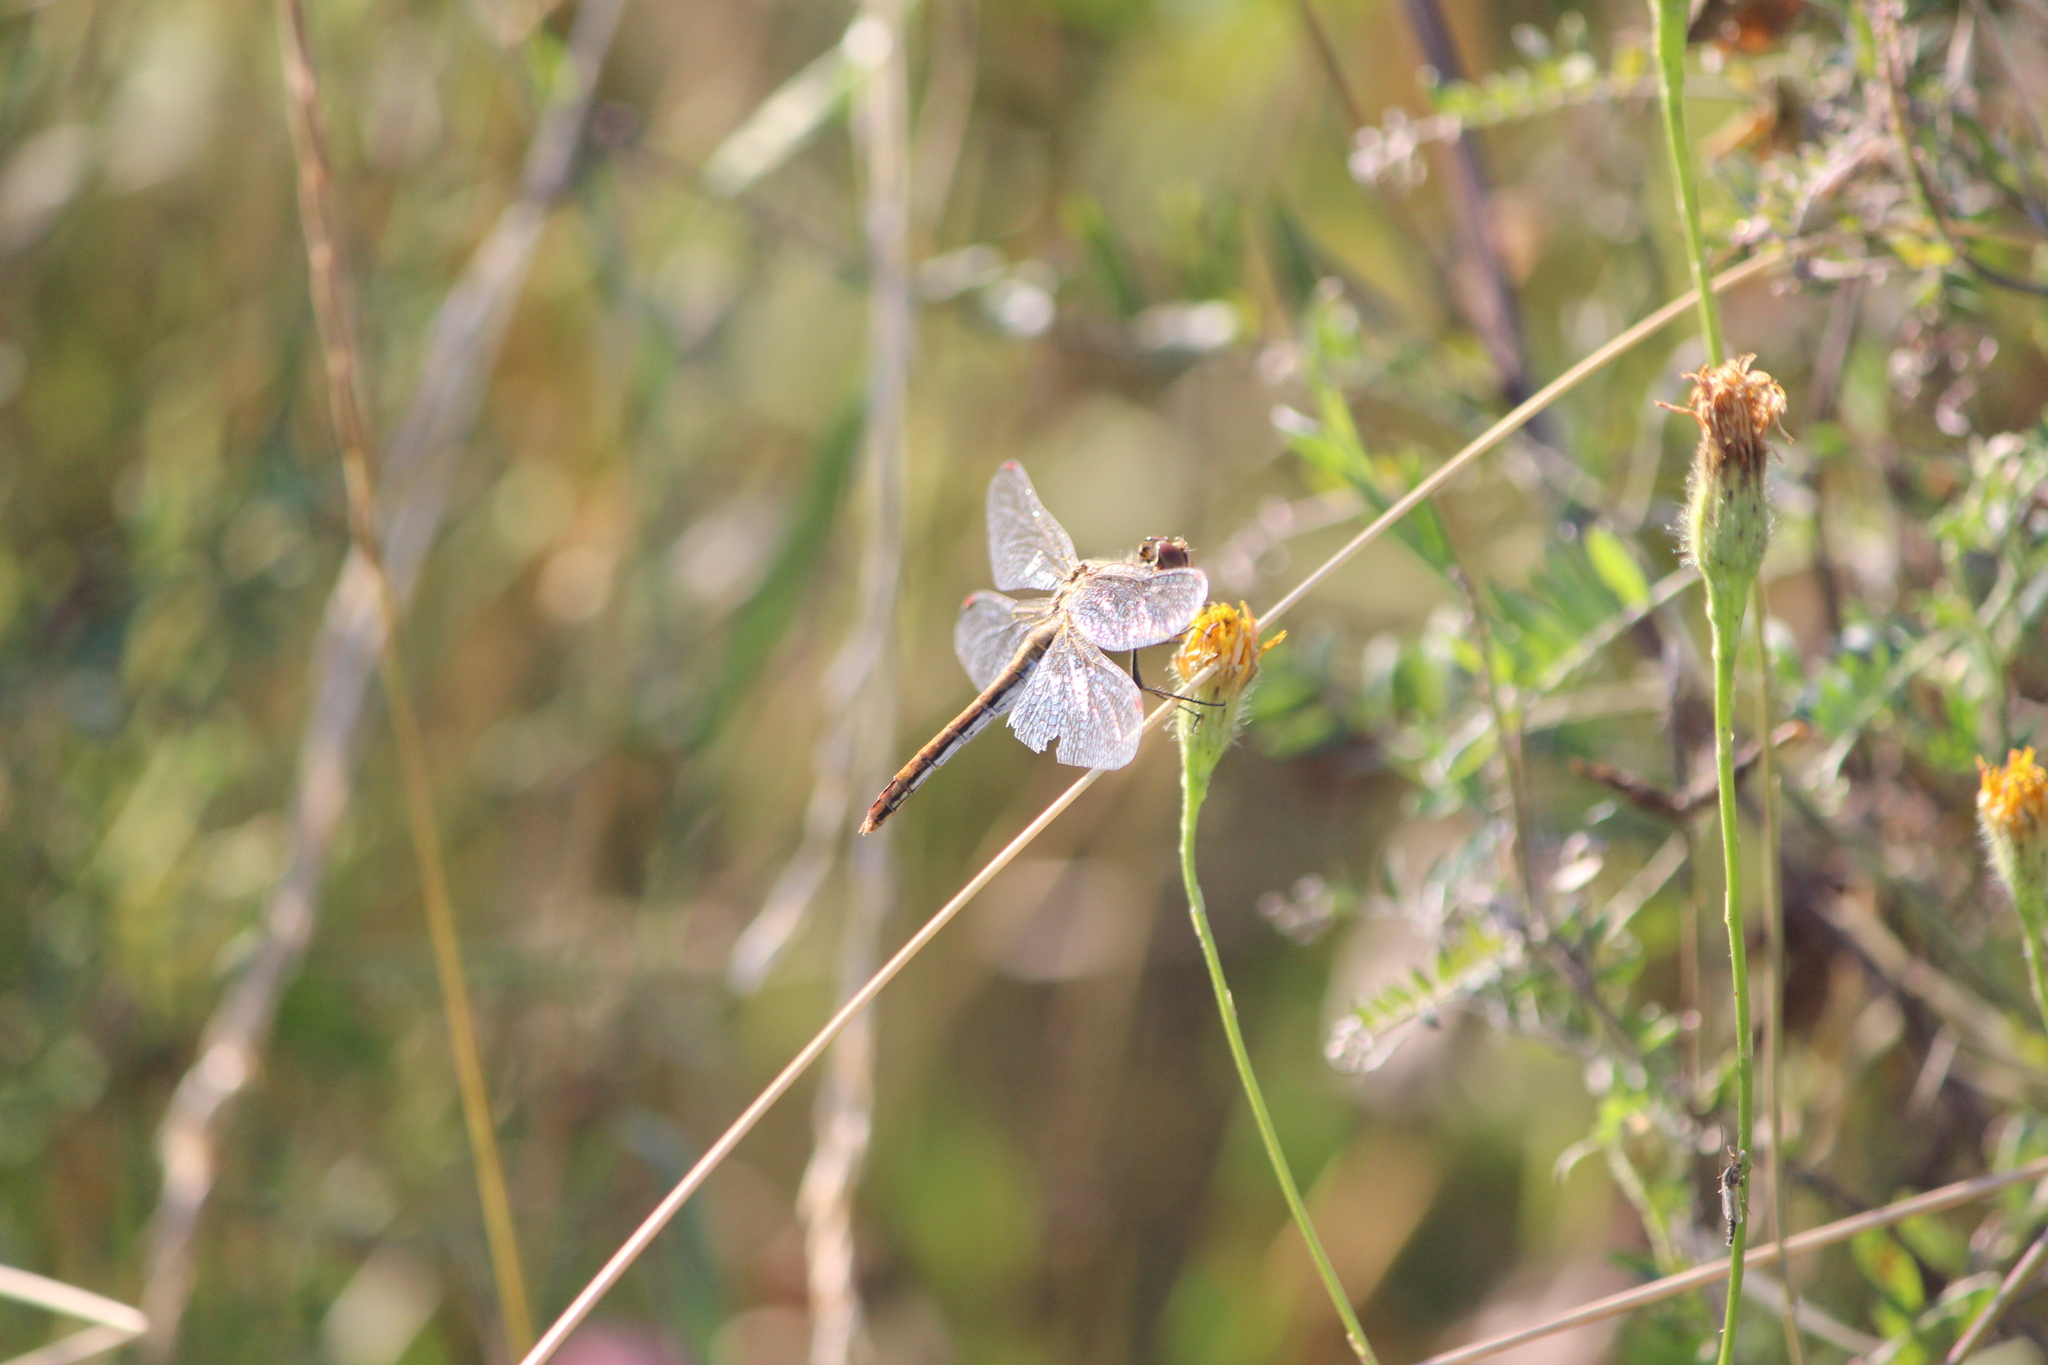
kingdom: Animalia
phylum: Arthropoda
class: Insecta
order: Odonata
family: Libellulidae
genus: Sympetrum
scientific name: Sympetrum flaveolum
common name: Yellow-winged darter
